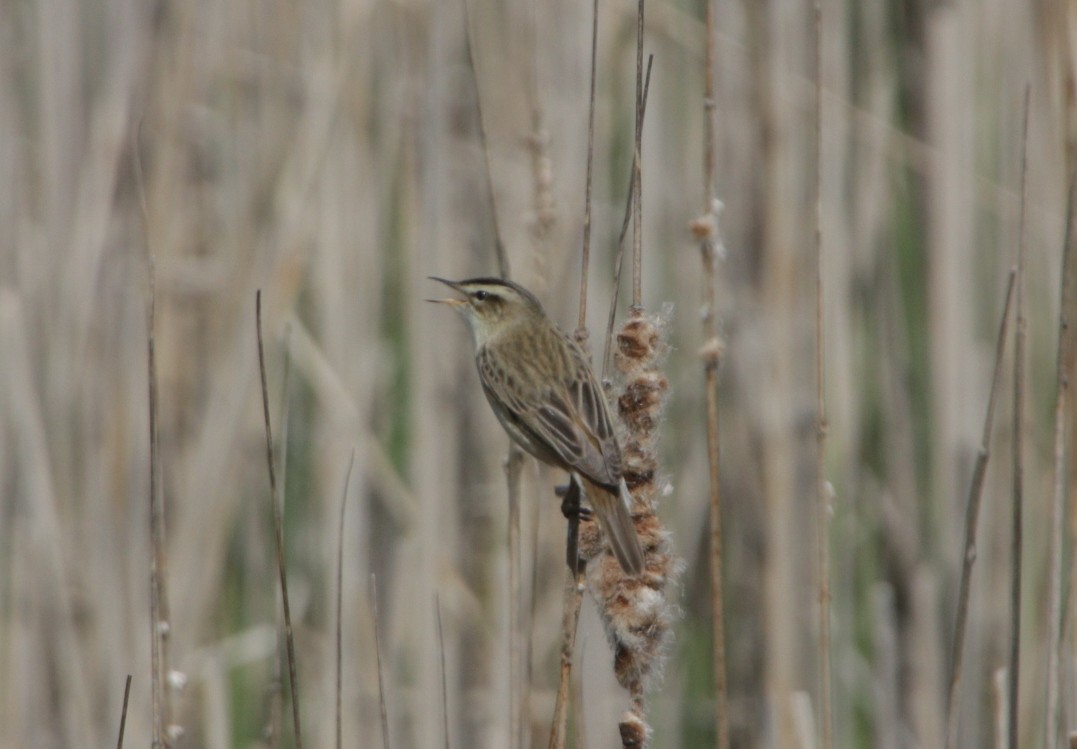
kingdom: Animalia
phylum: Chordata
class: Aves
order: Passeriformes
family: Acrocephalidae
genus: Acrocephalus
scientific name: Acrocephalus schoenobaenus
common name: Sedge warbler
